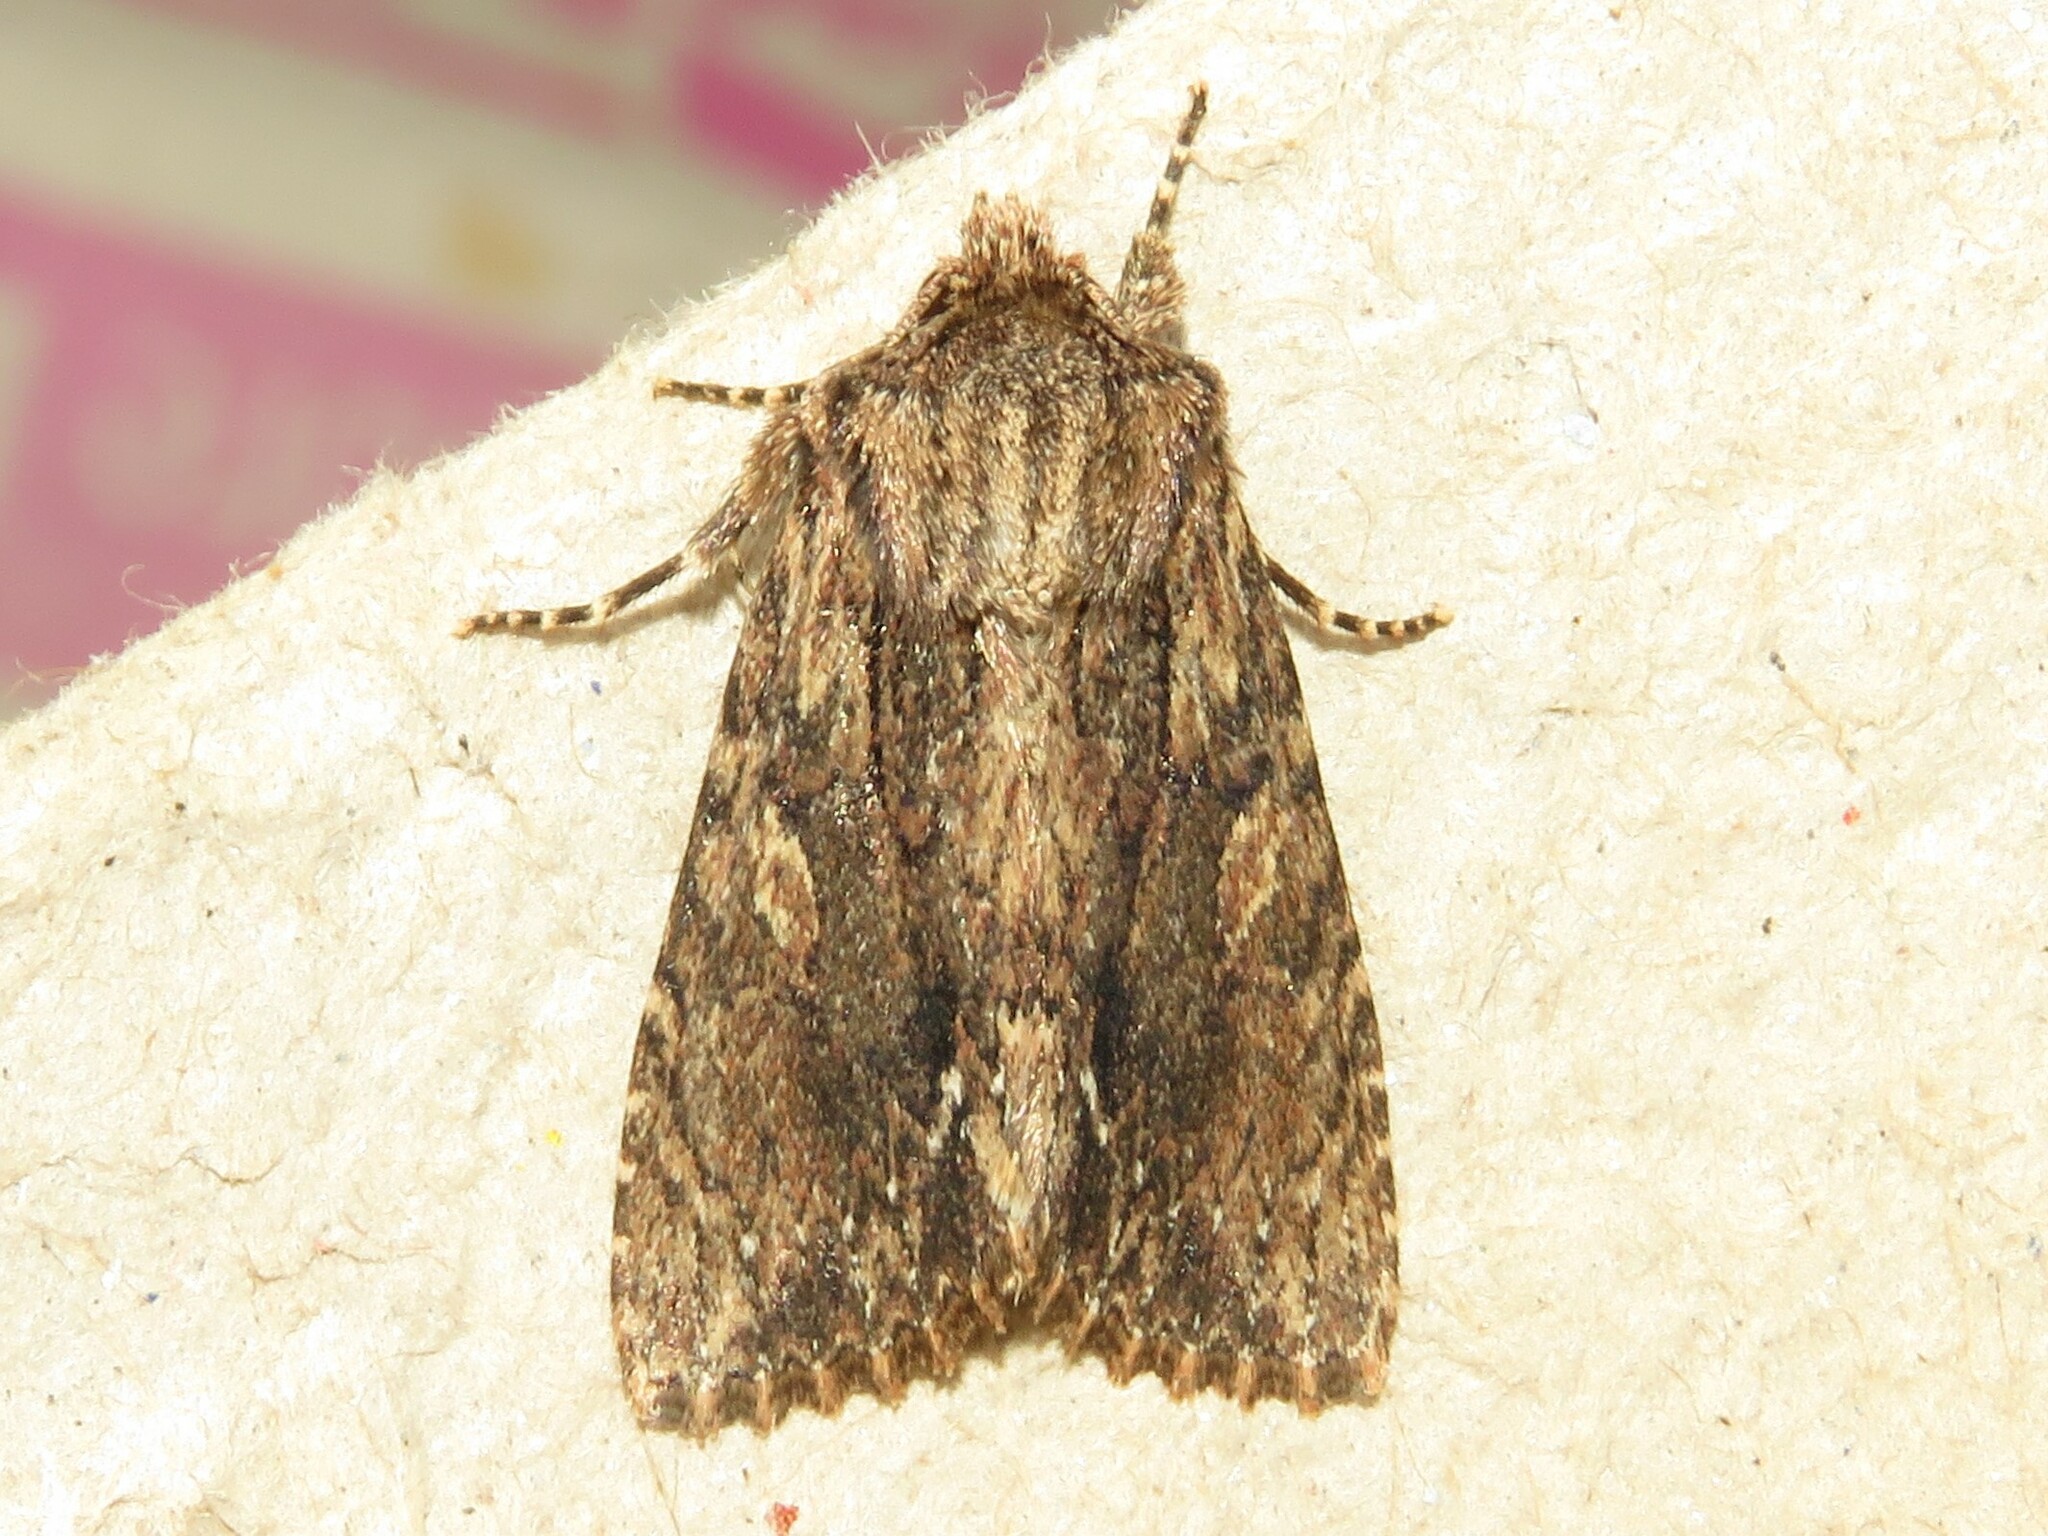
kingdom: Animalia
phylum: Arthropoda
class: Insecta
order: Lepidoptera
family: Noctuidae
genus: Achatia
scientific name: Achatia confusa
